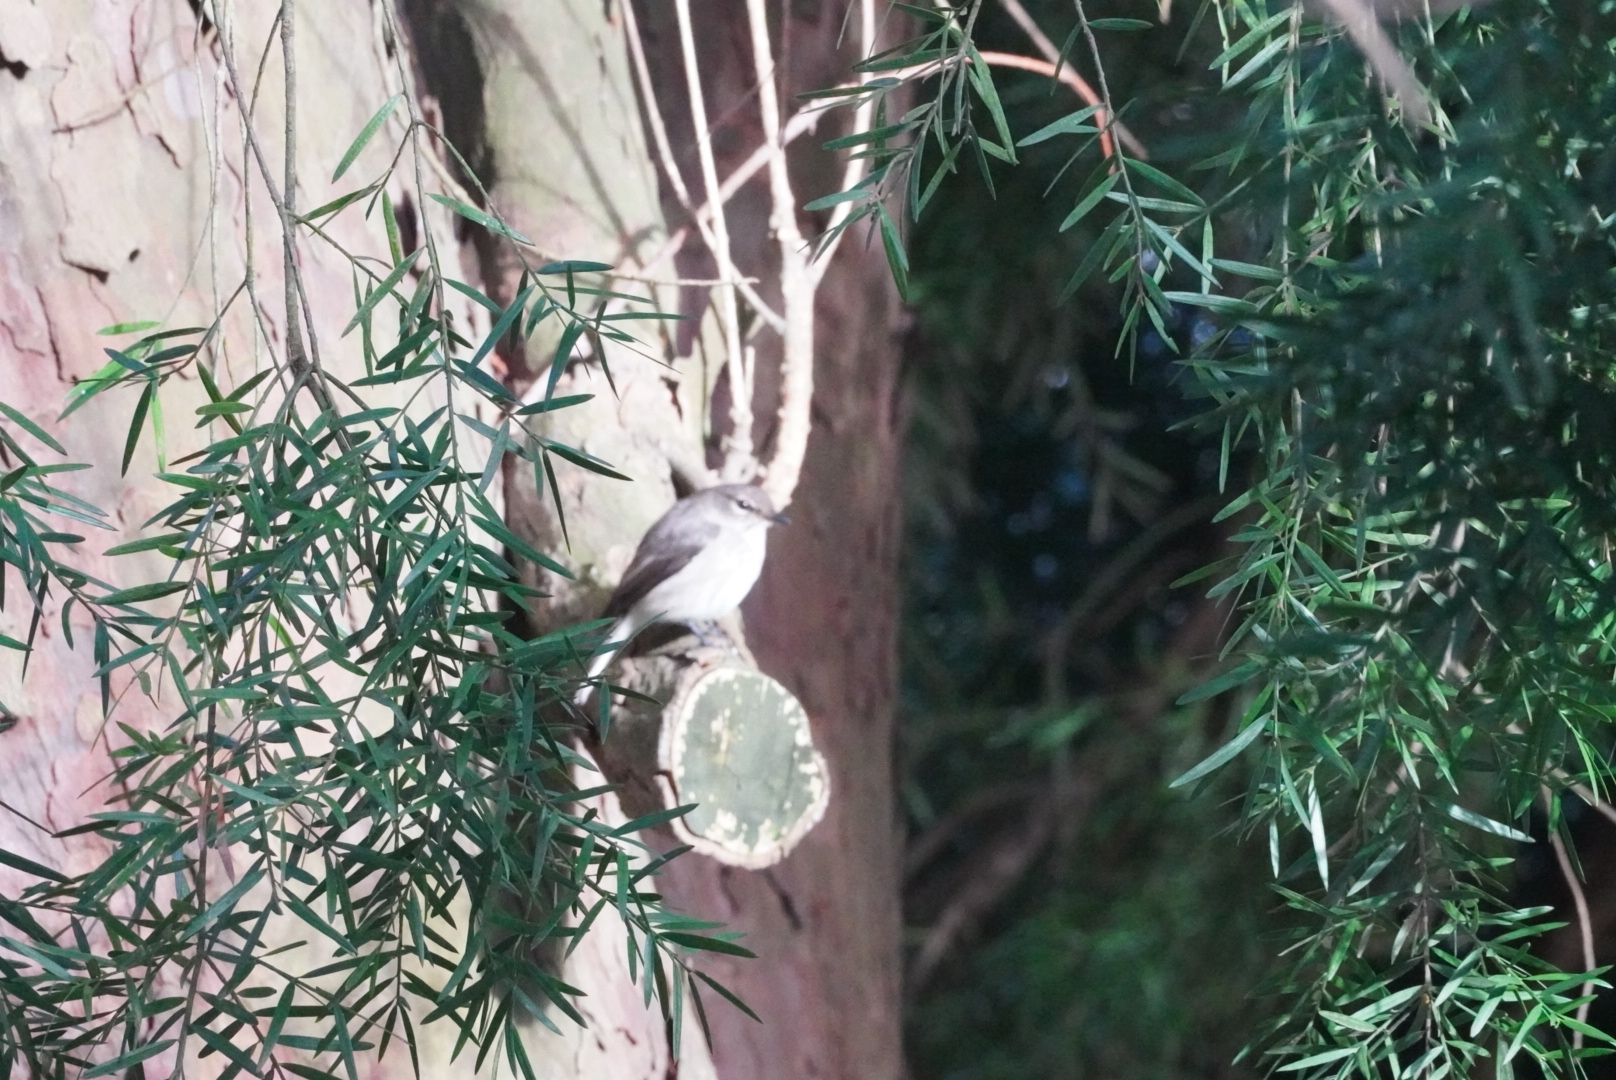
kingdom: Animalia
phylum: Chordata
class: Aves
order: Passeriformes
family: Muscicapidae
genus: Muscicapa
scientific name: Muscicapa adusta
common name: African dusky flycatcher
